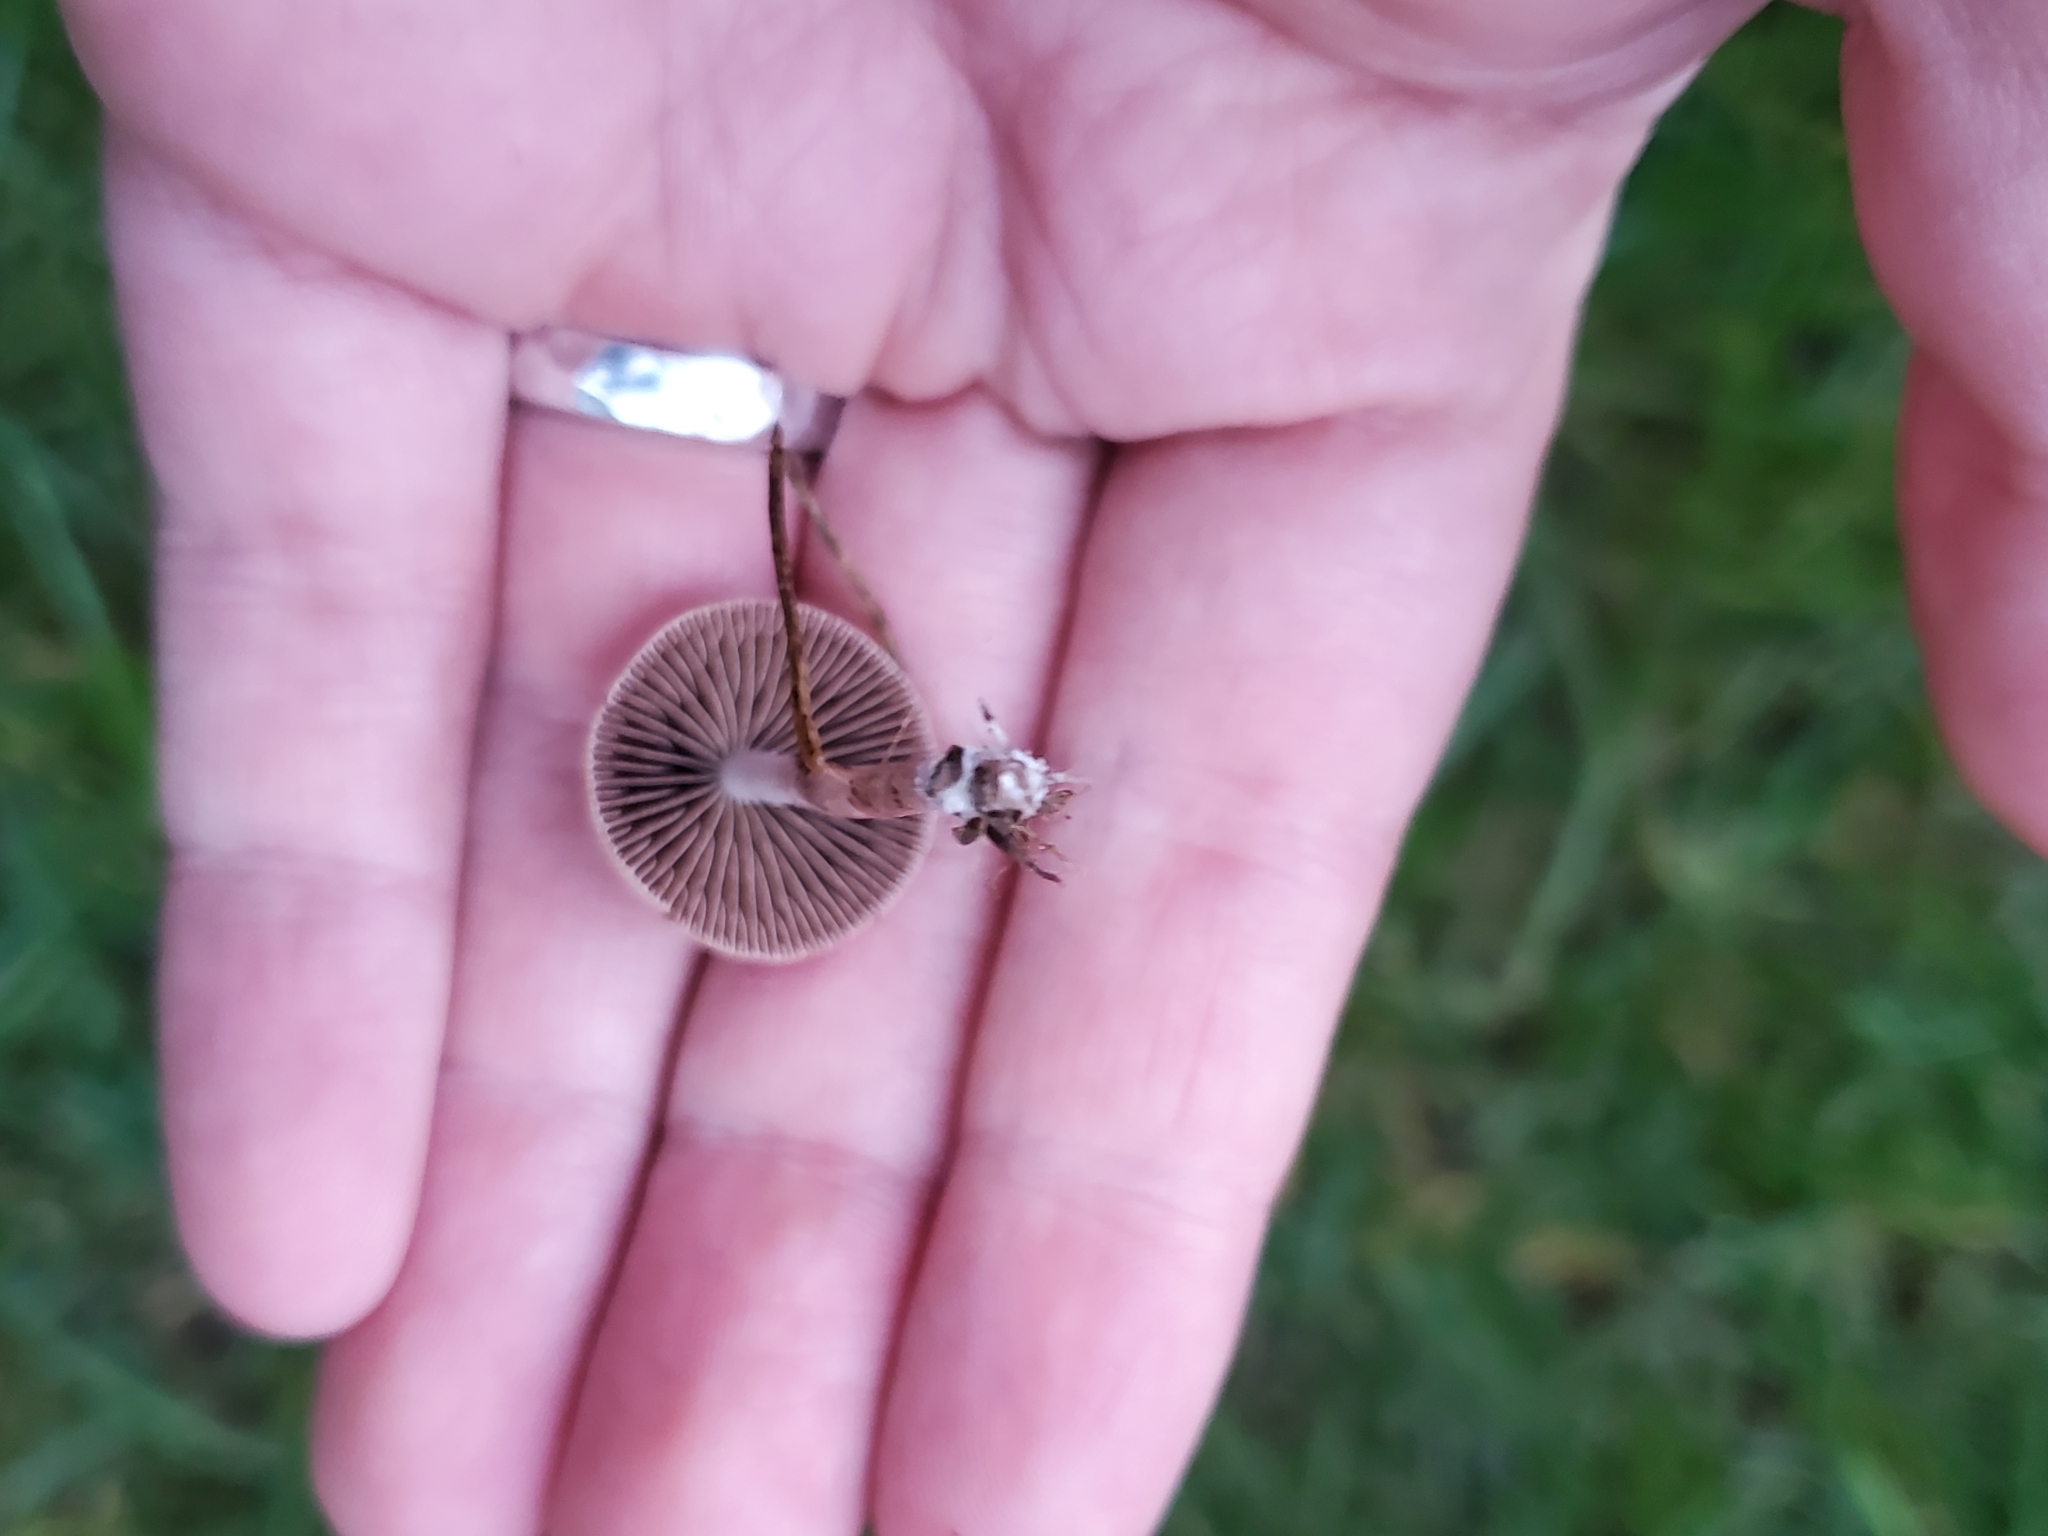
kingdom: Fungi
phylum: Basidiomycota
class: Agaricomycetes
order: Agaricales
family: Bolbitiaceae
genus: Panaeolina
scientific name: Panaeolina foenisecii
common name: Brown hay cap
